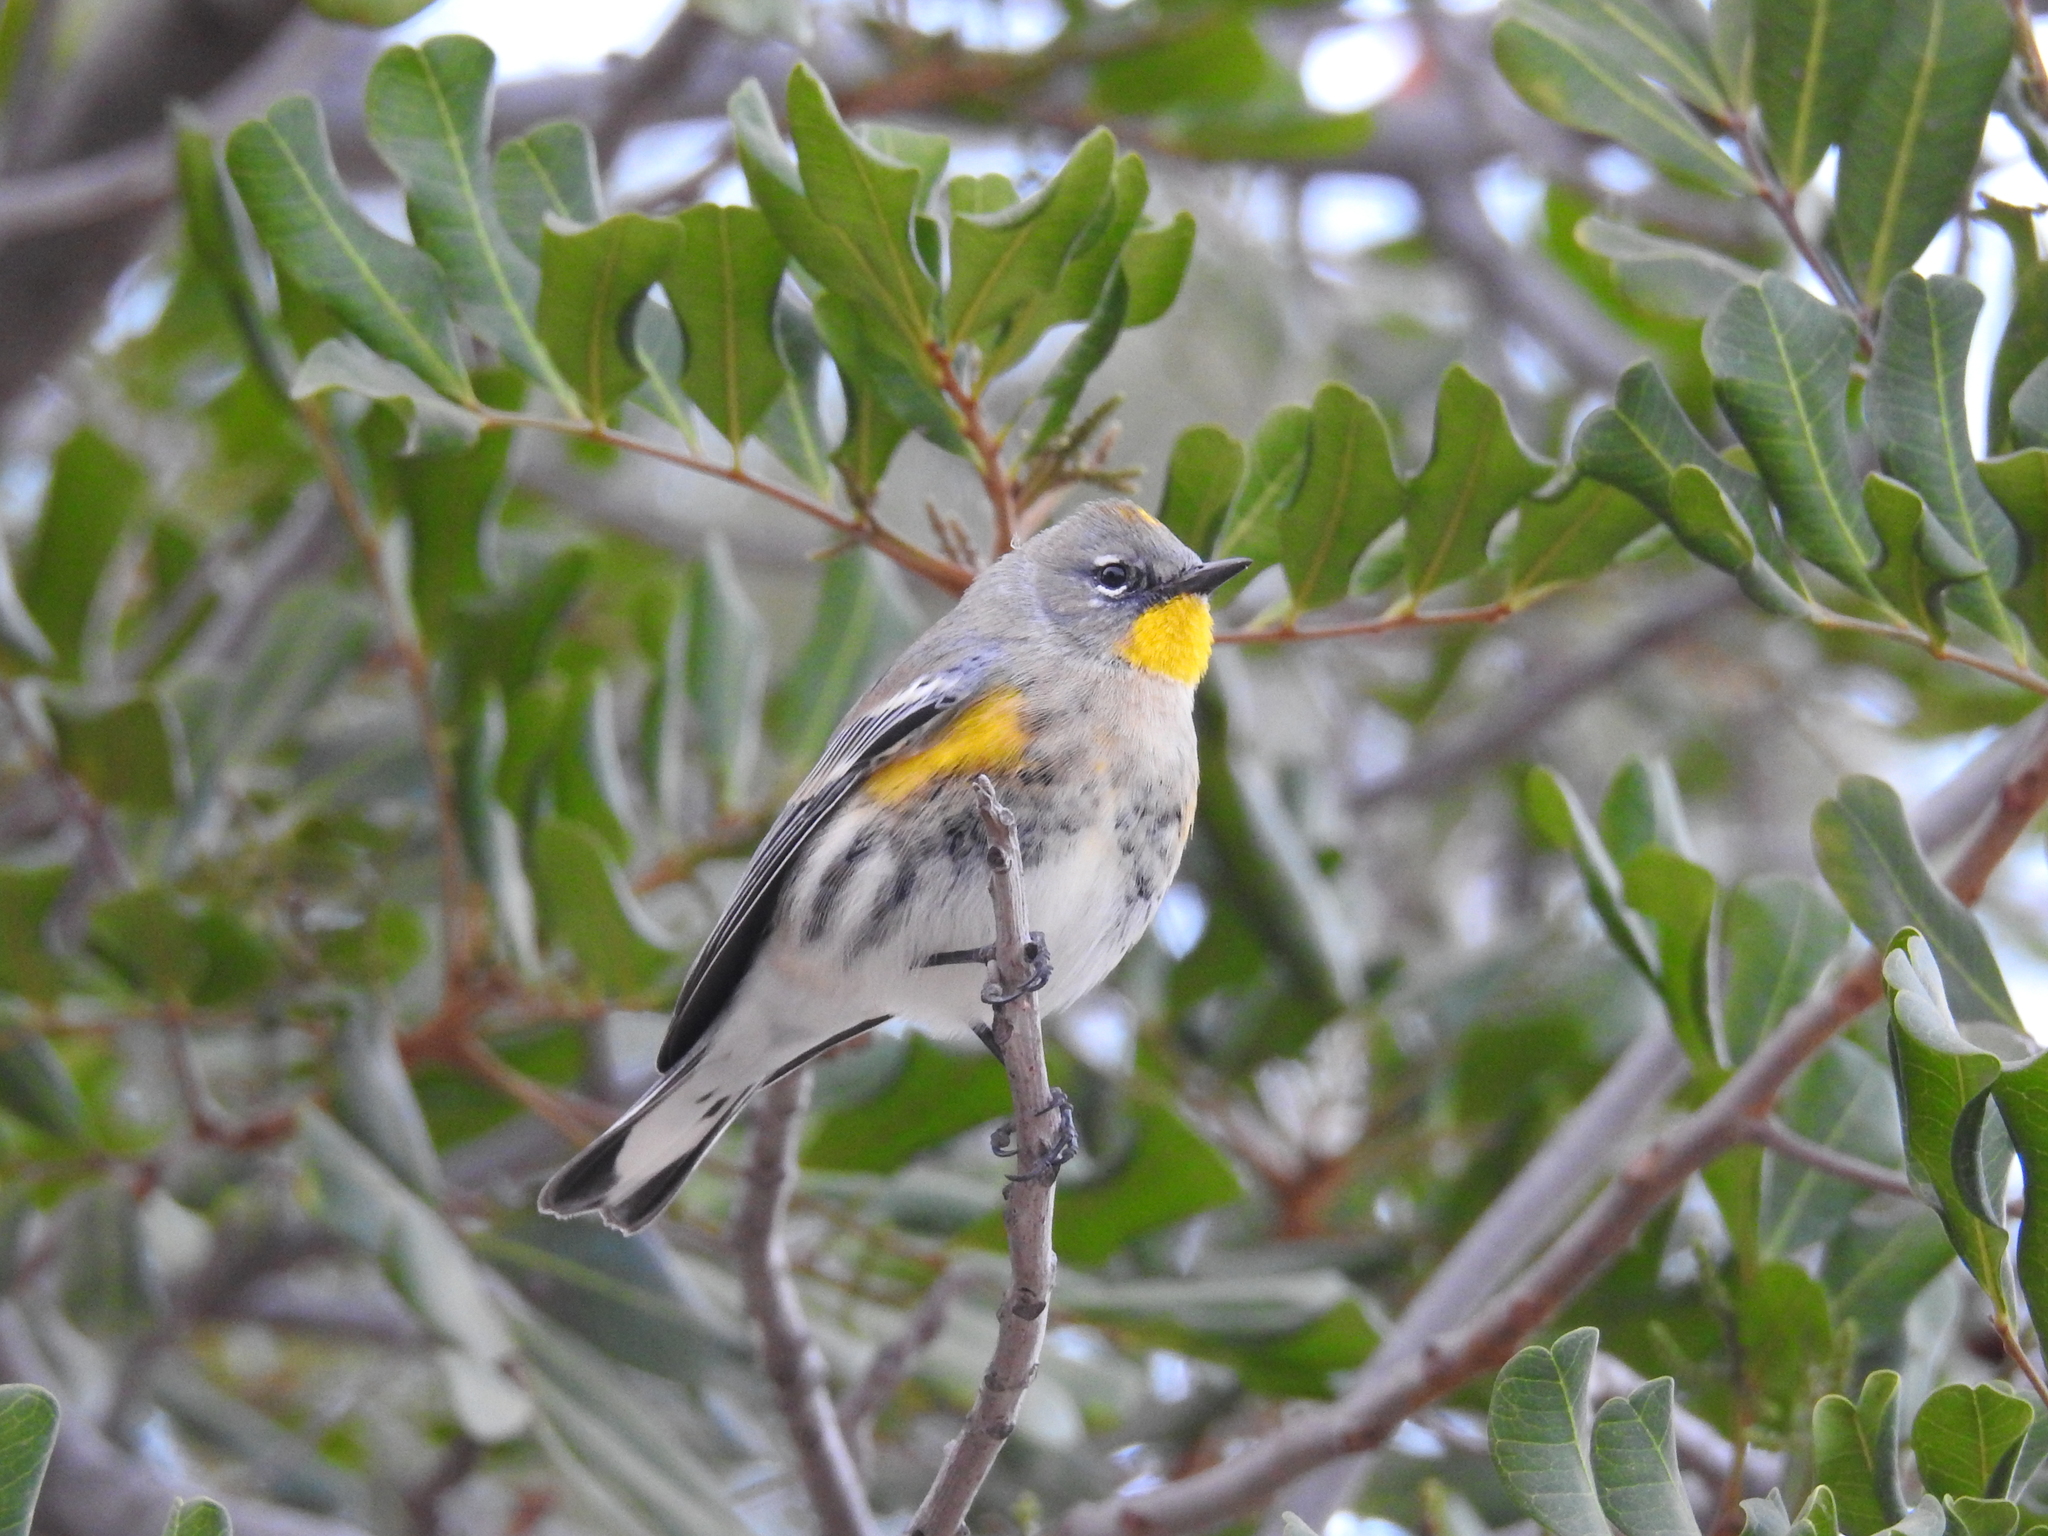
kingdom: Animalia
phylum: Chordata
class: Aves
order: Passeriformes
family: Parulidae
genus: Setophaga
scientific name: Setophaga auduboni
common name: Audubon's warbler
